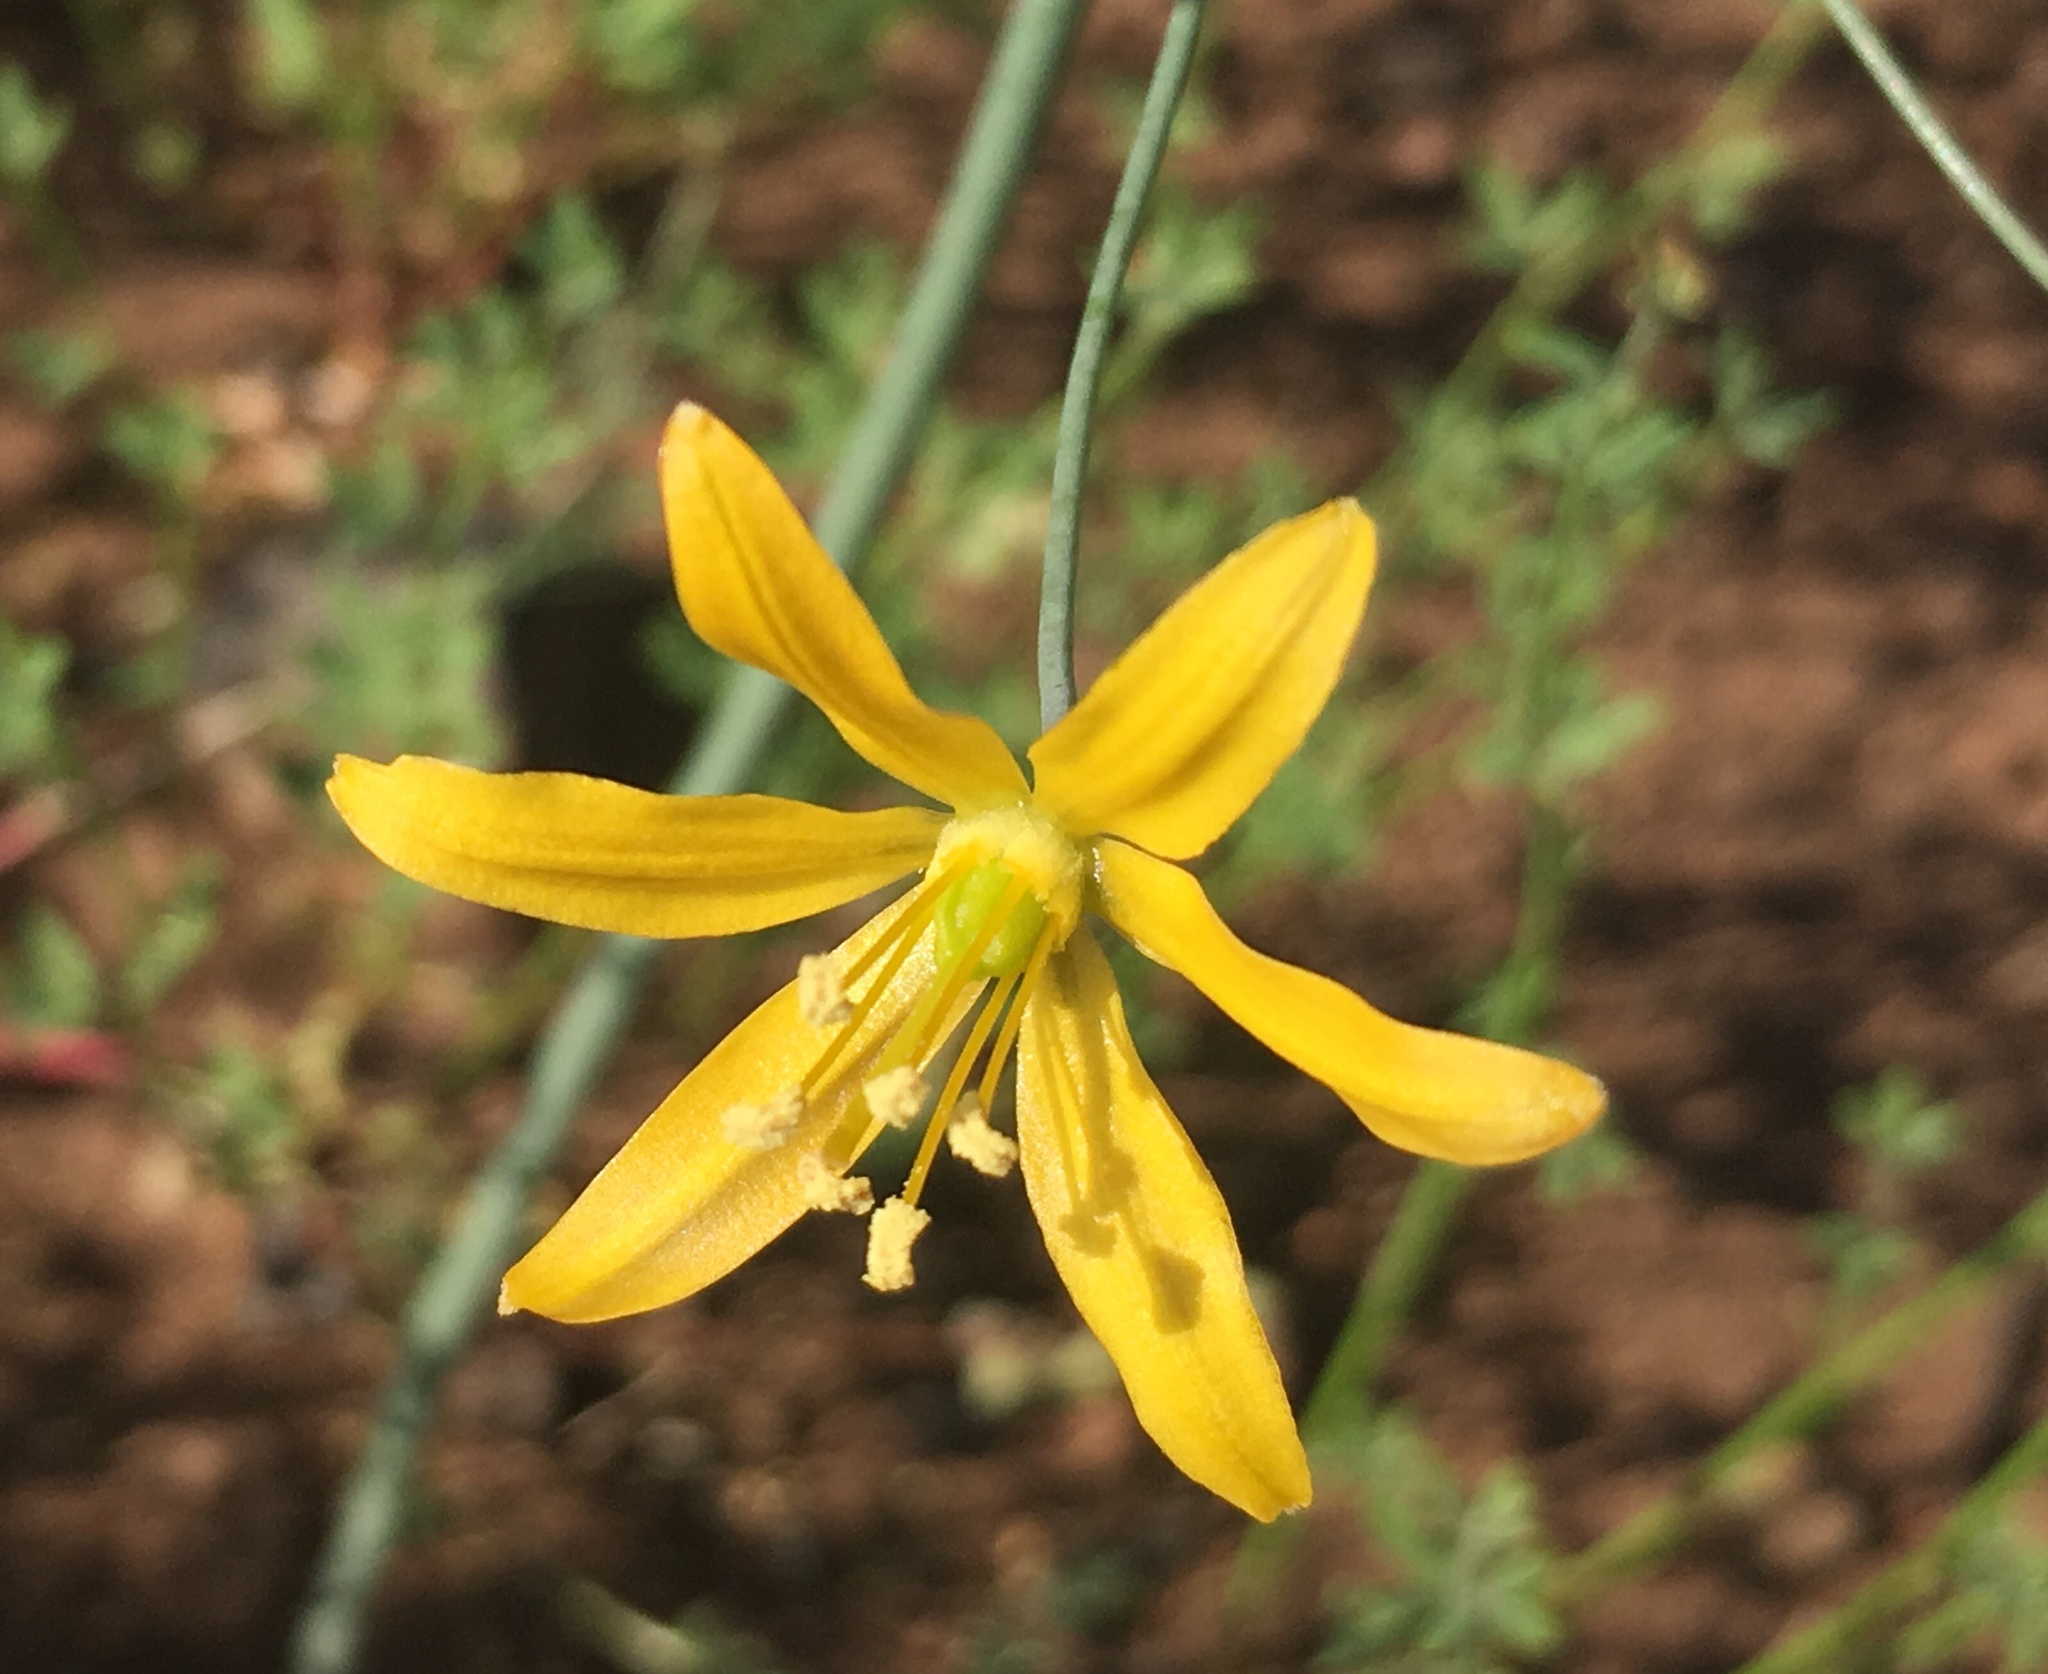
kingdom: Plantae
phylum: Tracheophyta
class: Liliopsida
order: Asparagales
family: Asparagaceae
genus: Bloomeria
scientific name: Bloomeria crocea
